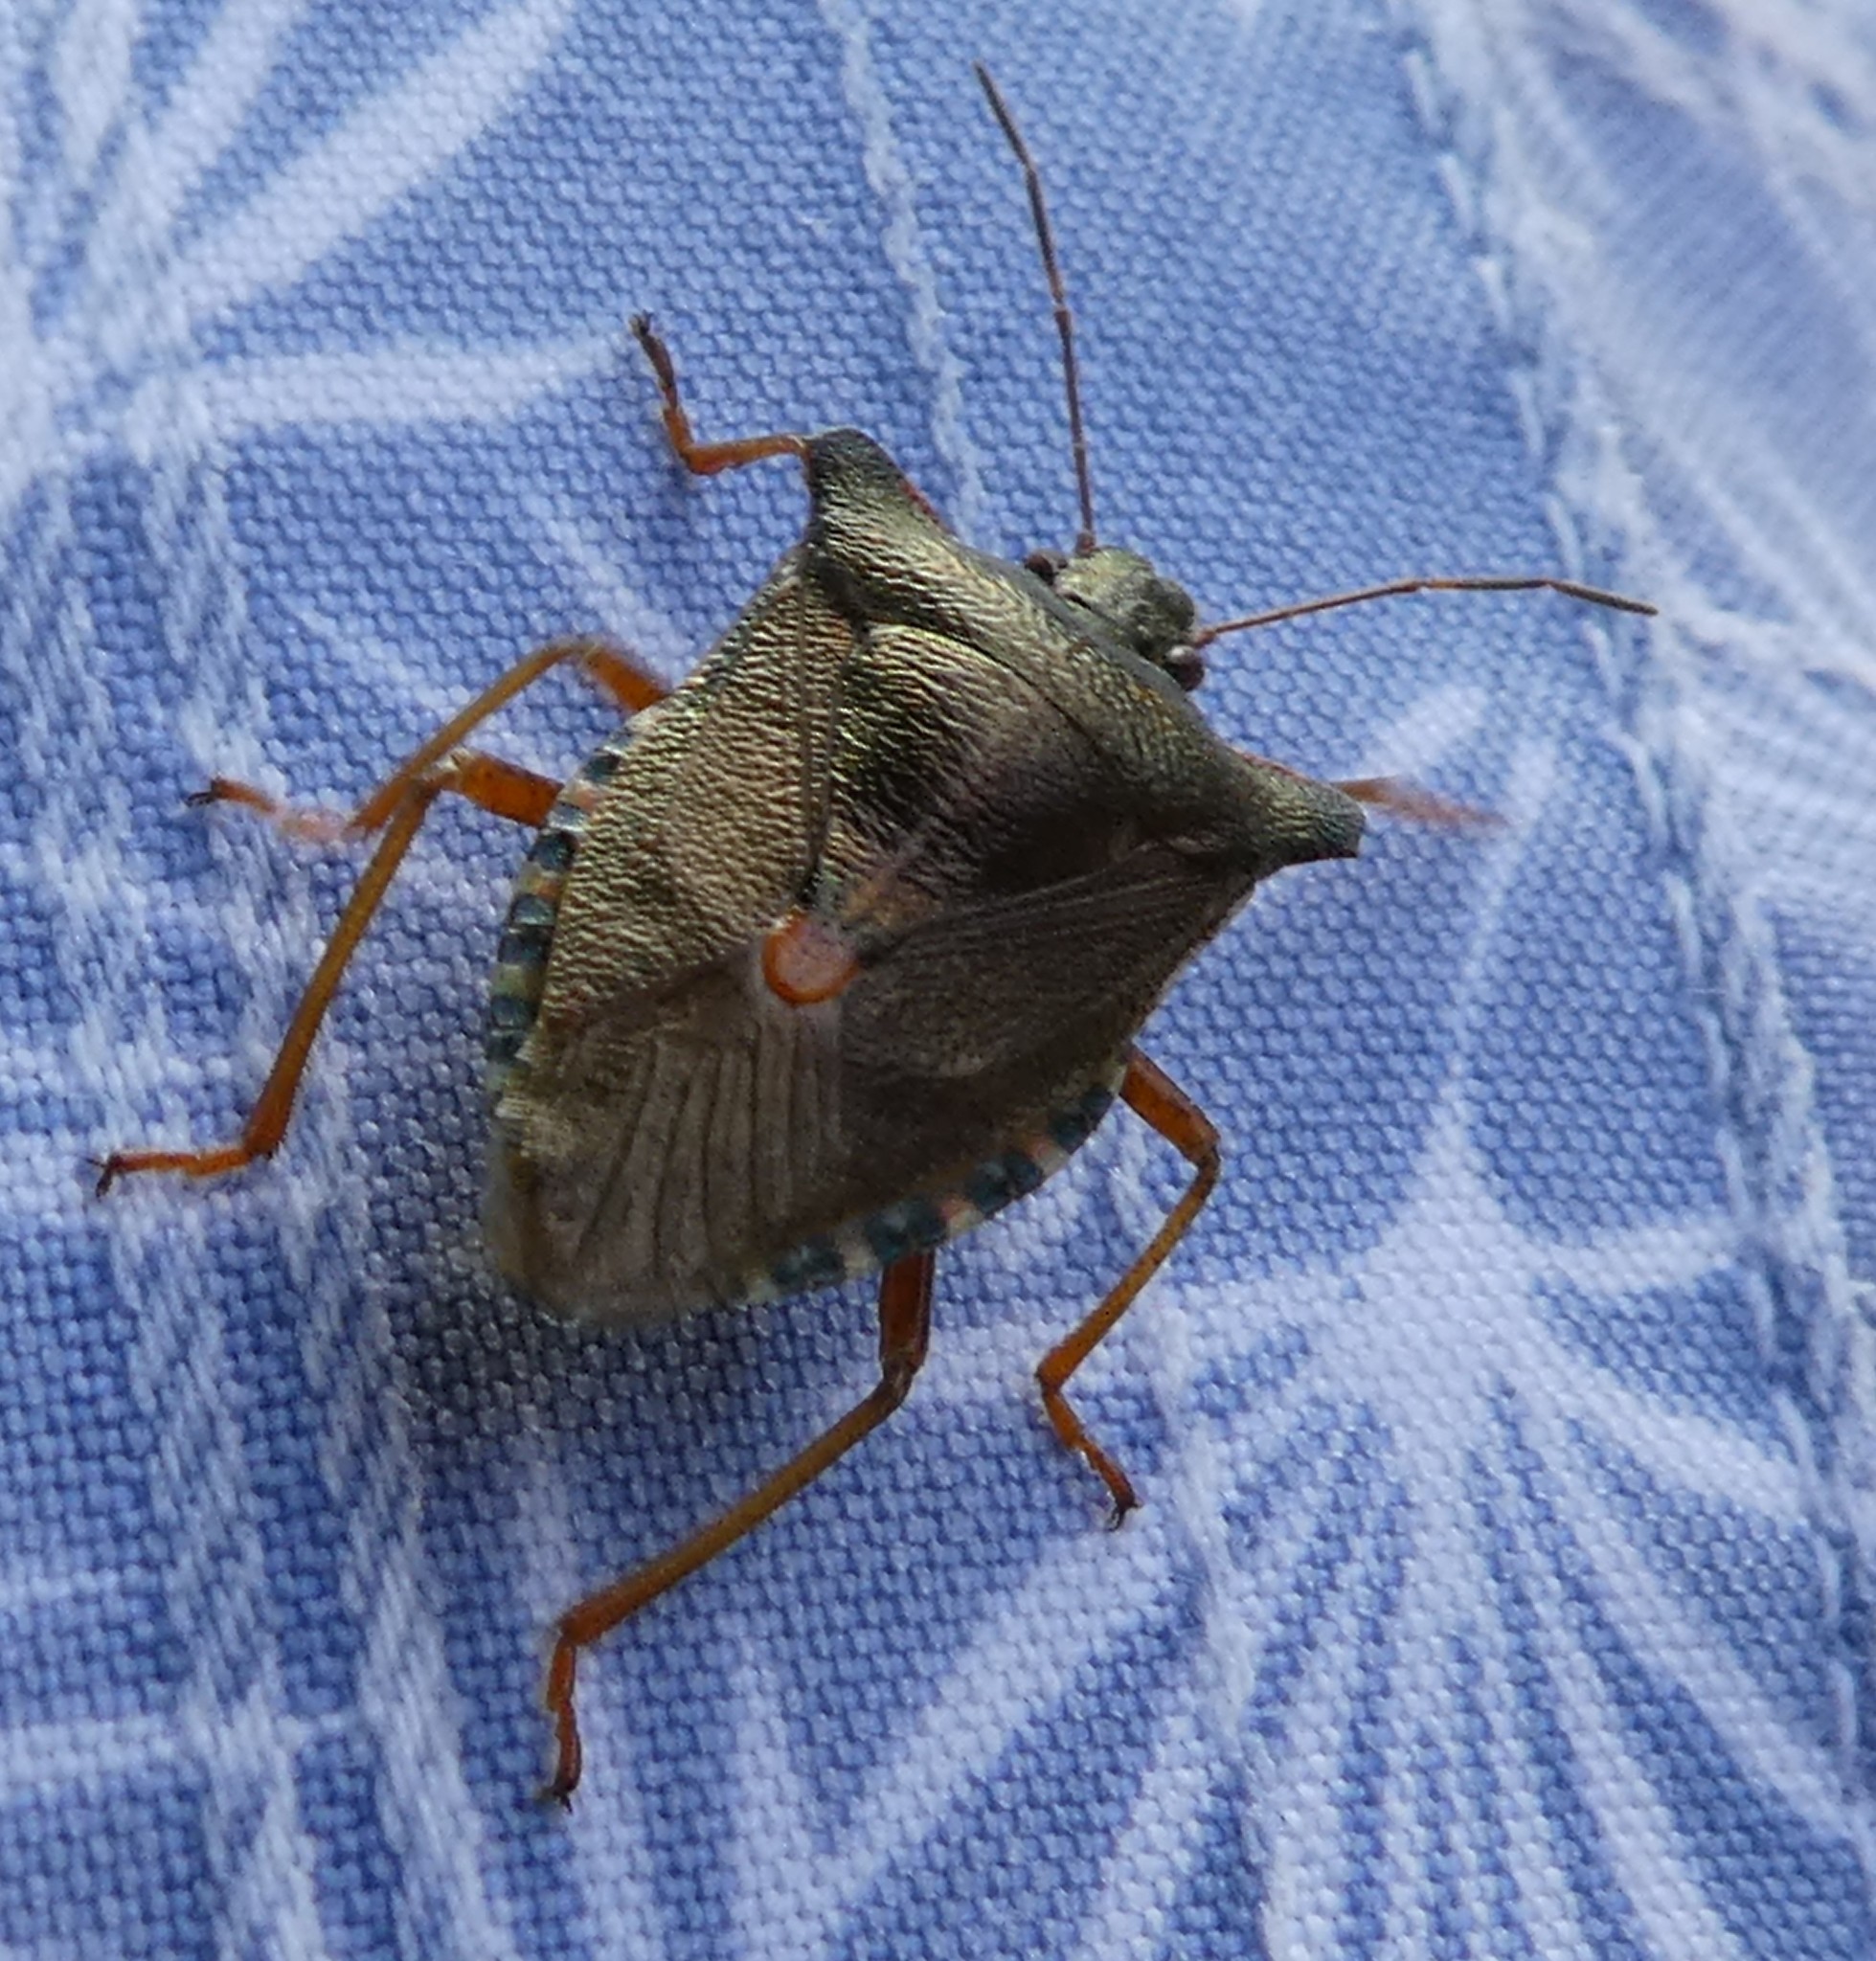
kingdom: Animalia
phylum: Arthropoda
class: Insecta
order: Hemiptera
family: Pentatomidae
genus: Pentatoma
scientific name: Pentatoma rufipes
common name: Forest bug
